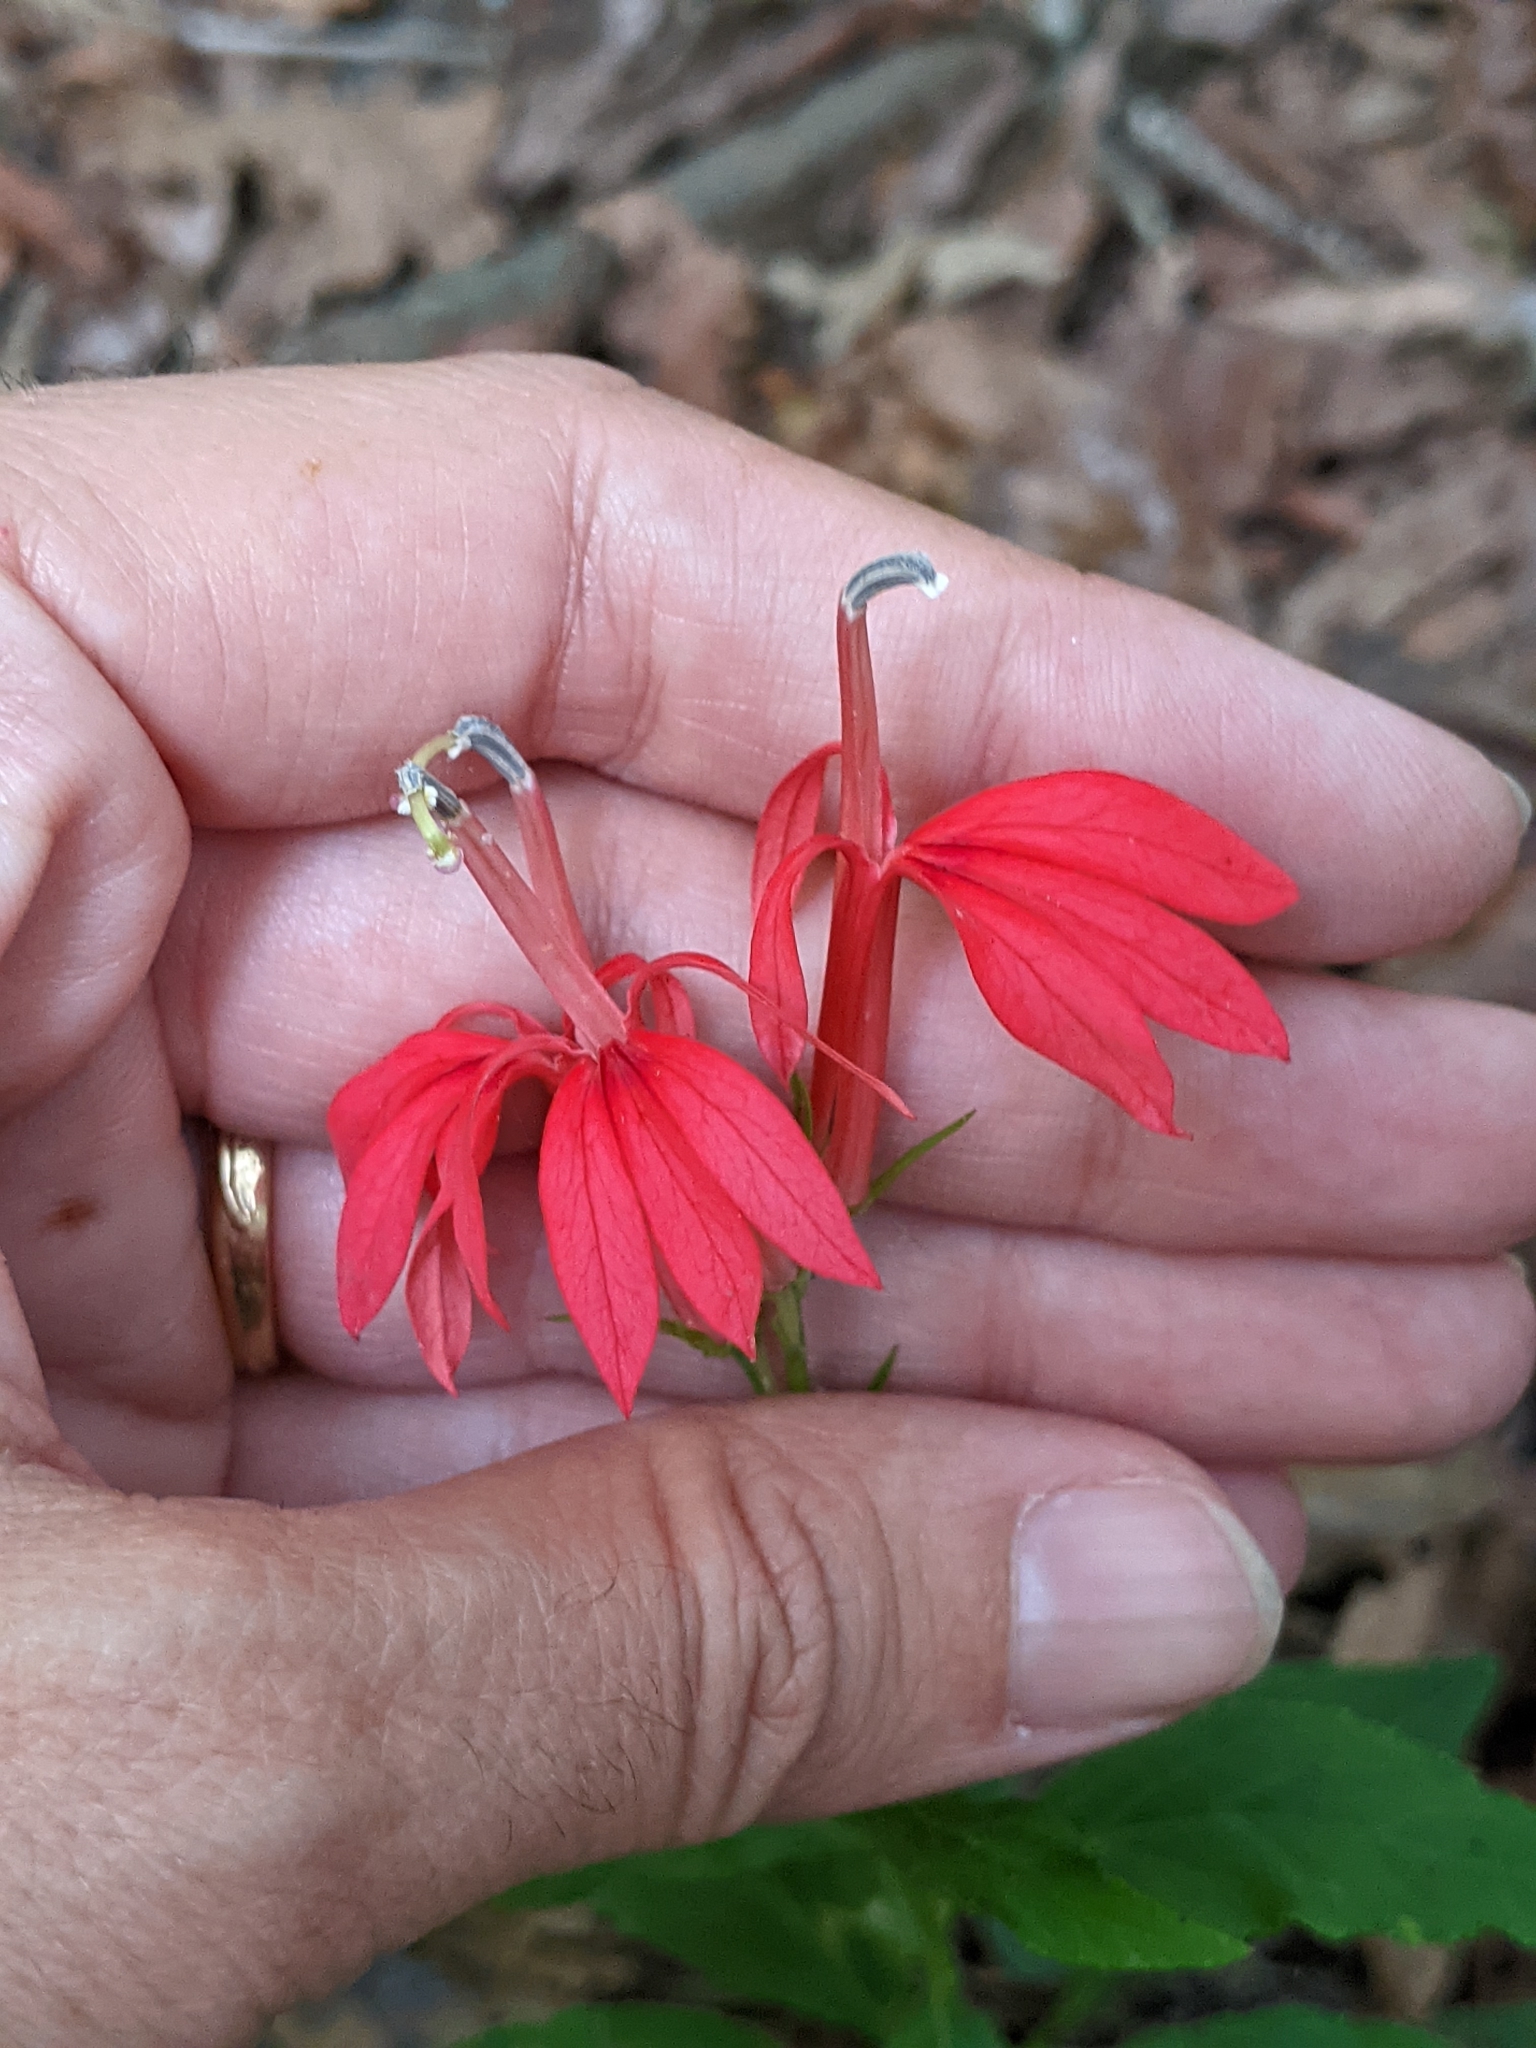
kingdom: Plantae
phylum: Tracheophyta
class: Magnoliopsida
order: Asterales
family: Campanulaceae
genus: Lobelia
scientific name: Lobelia cardinalis
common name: Cardinal flower
